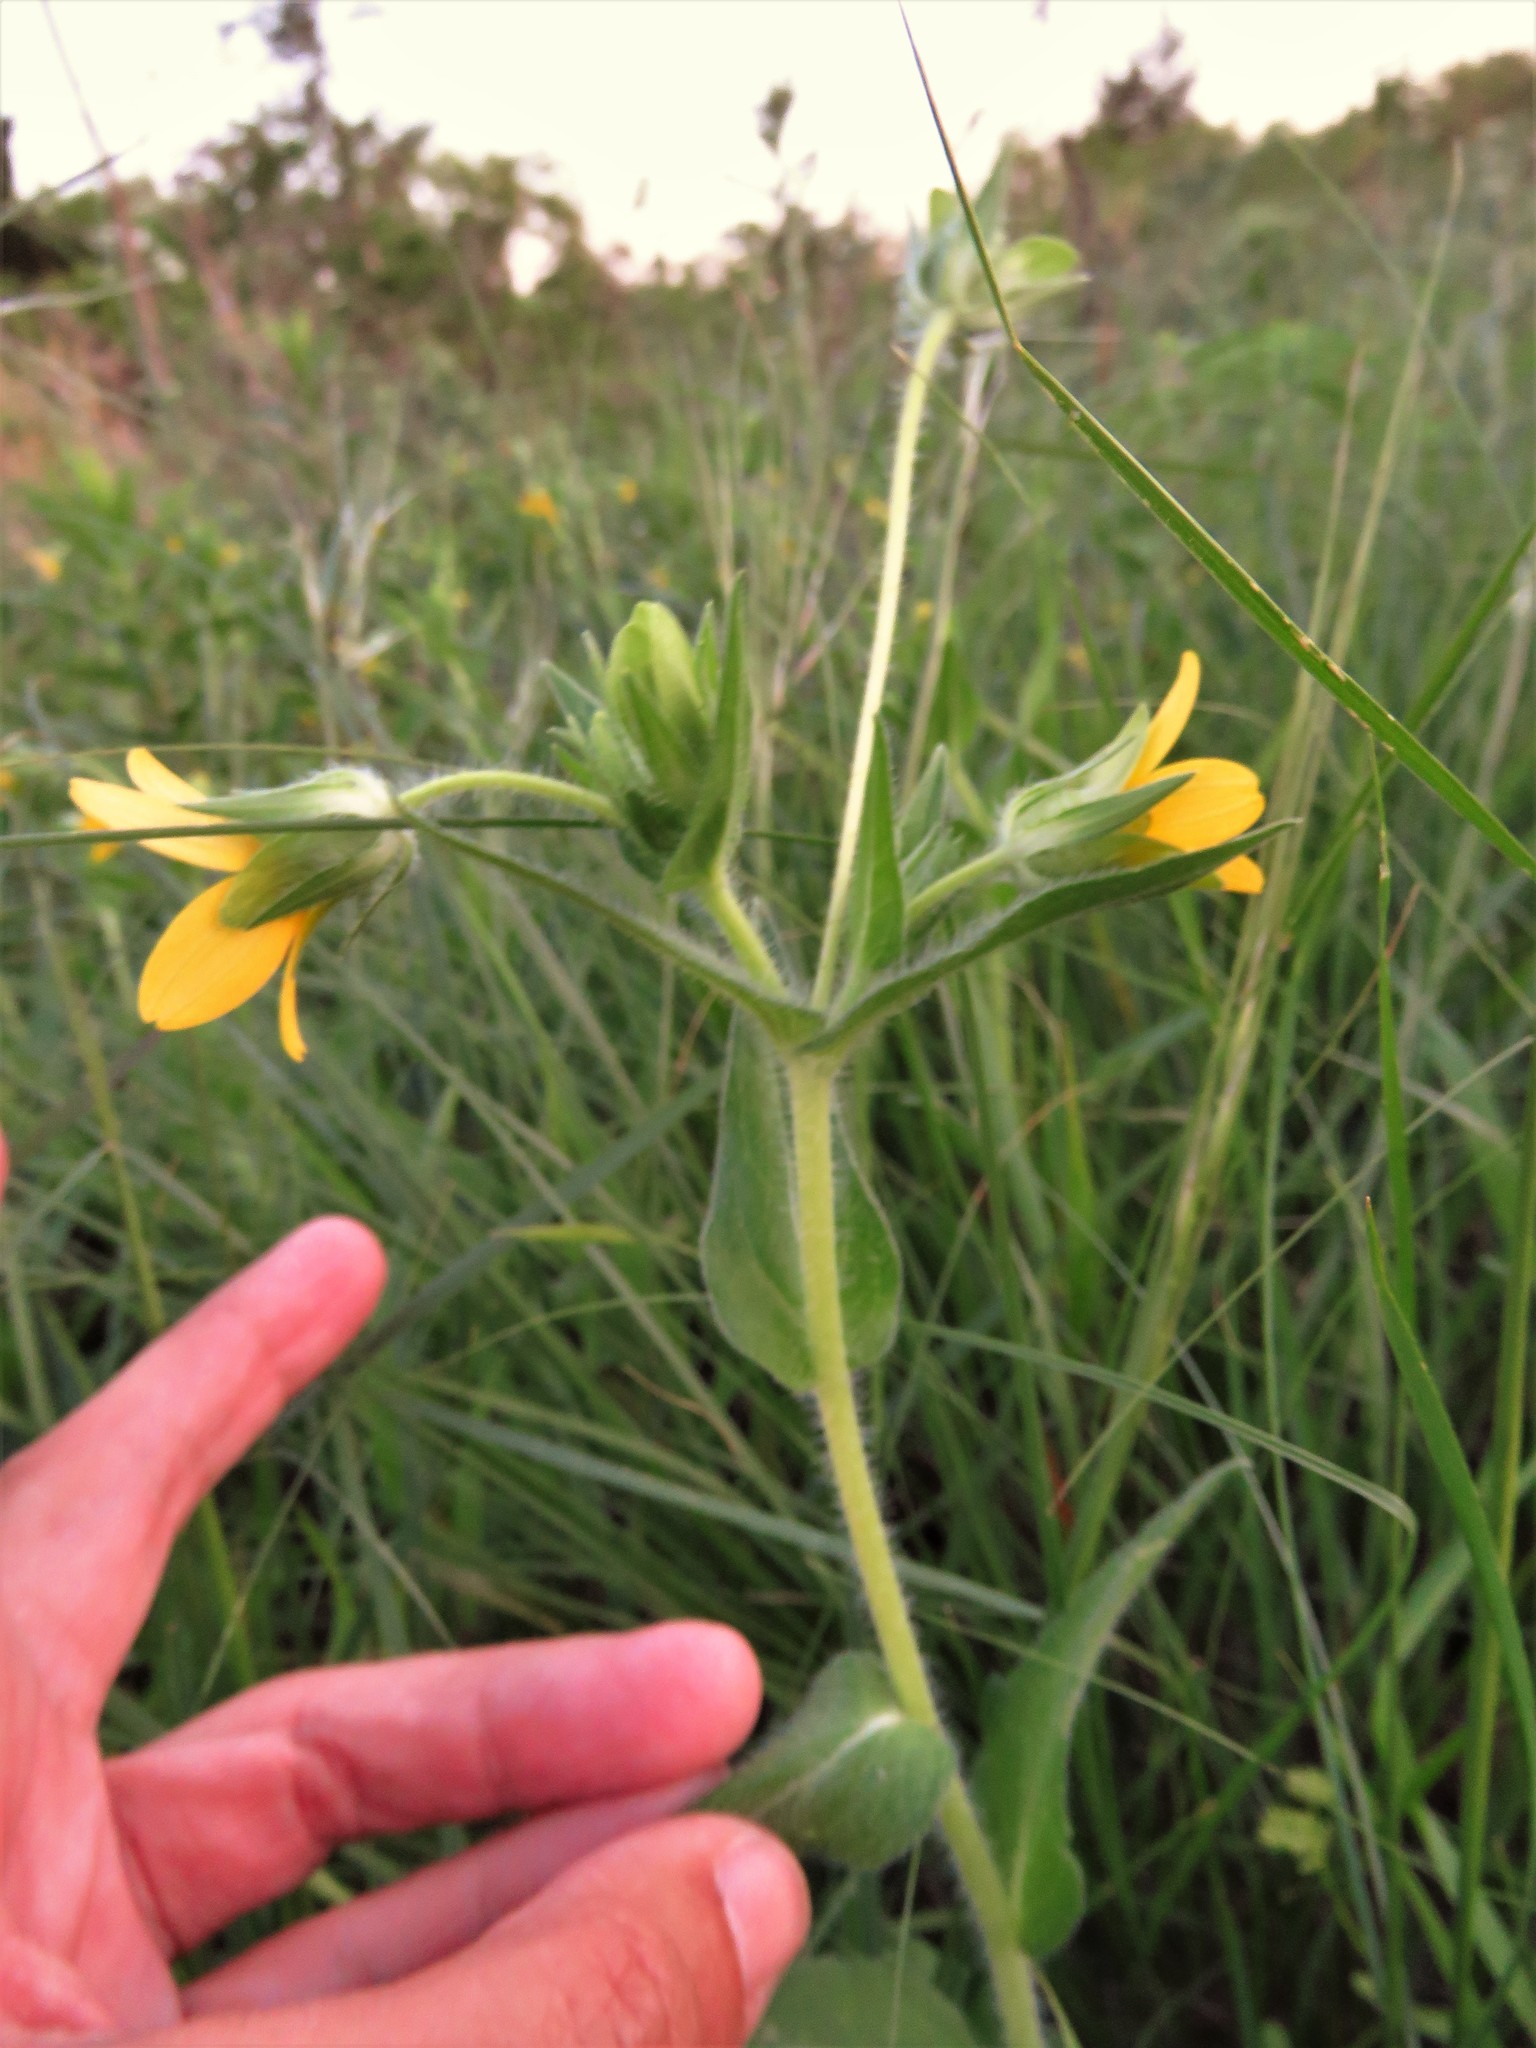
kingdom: Plantae
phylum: Tracheophyta
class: Magnoliopsida
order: Asterales
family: Asteraceae
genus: Lindheimera
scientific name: Lindheimera texana
